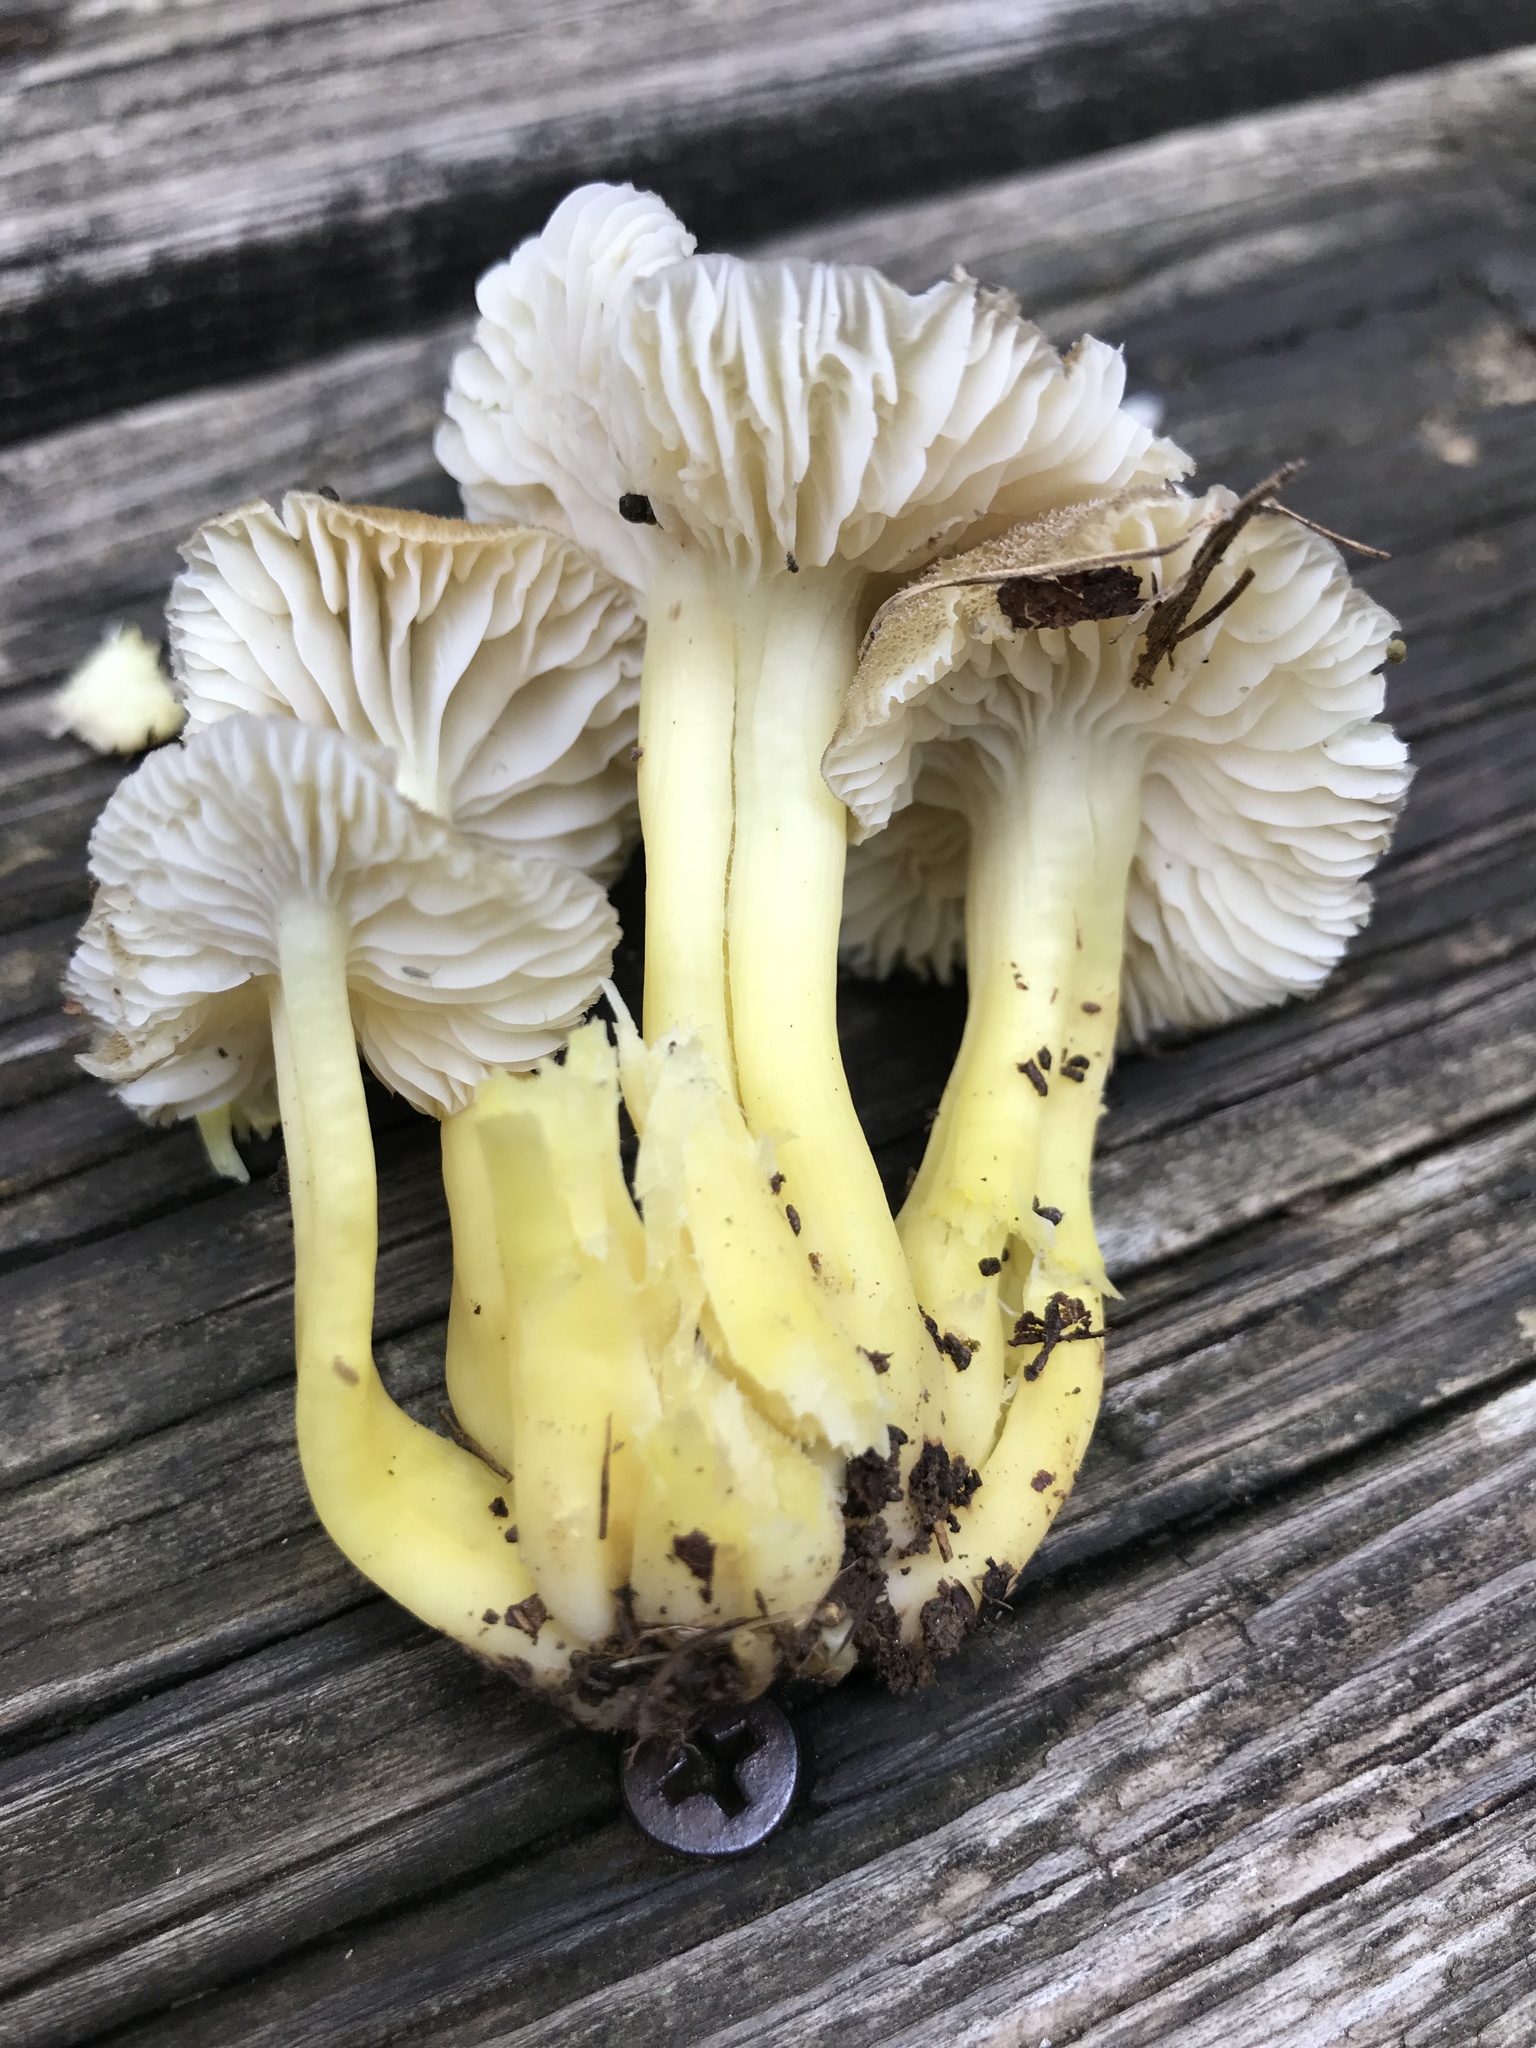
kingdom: Fungi
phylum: Basidiomycota
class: Agaricomycetes
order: Agaricales
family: Hygrophoraceae
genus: Hygrocybe
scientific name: Hygrocybe caespitosa
